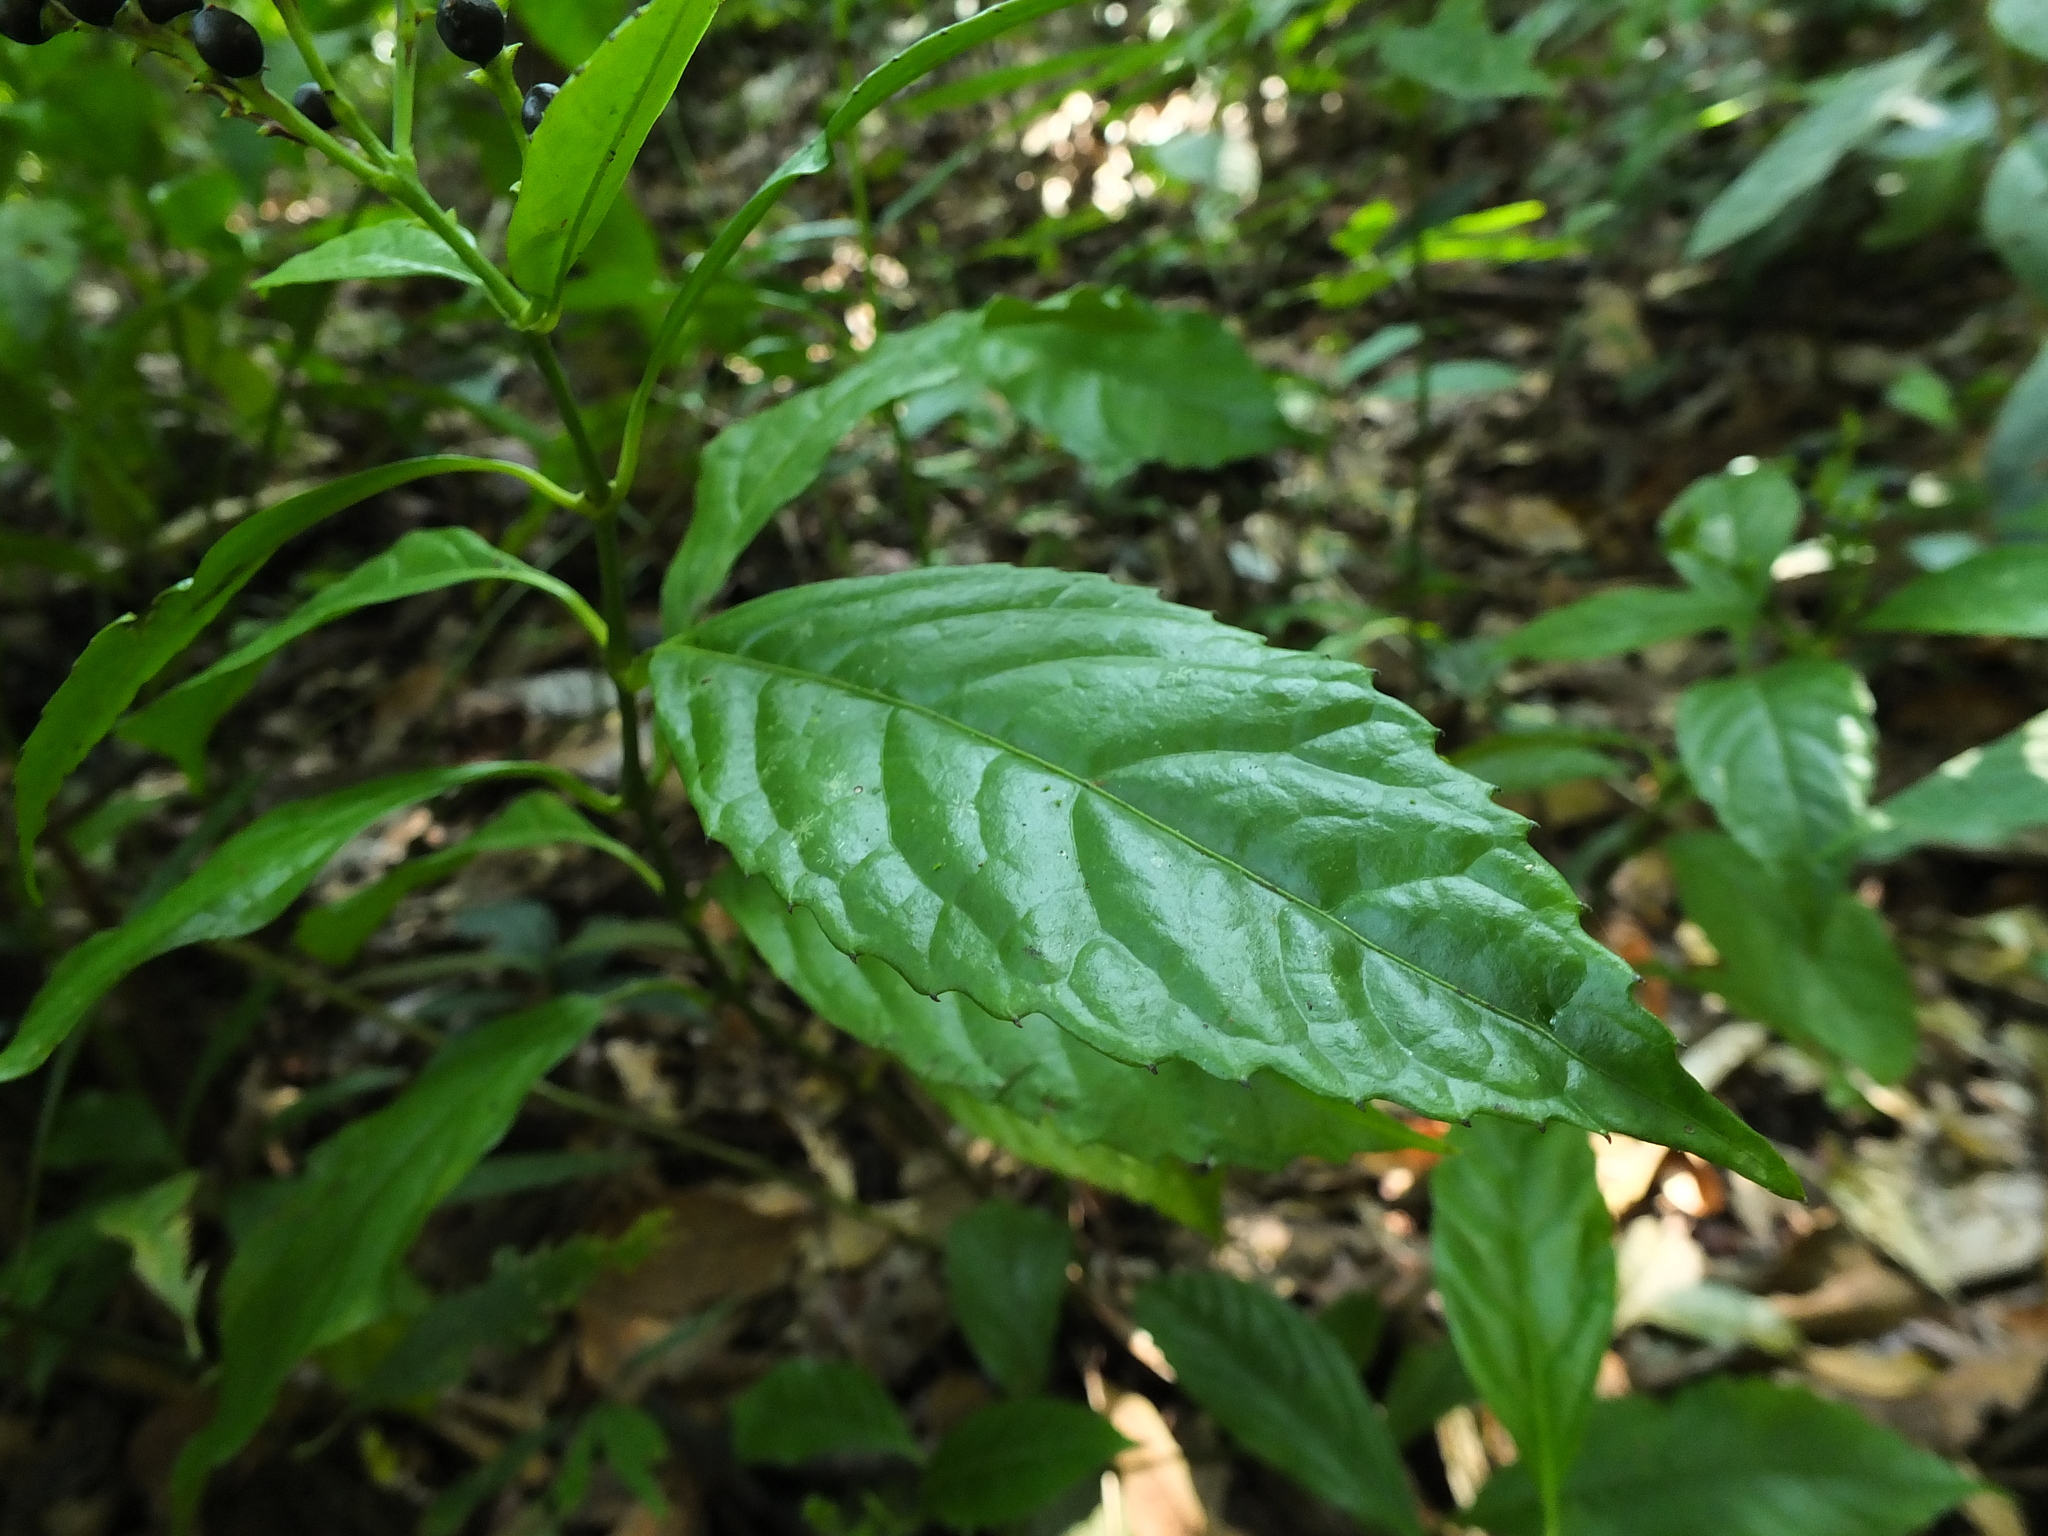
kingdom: Plantae
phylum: Tracheophyta
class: Magnoliopsida
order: Chloranthales
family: Chloranthaceae
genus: Sarcandra
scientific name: Sarcandra glabra
